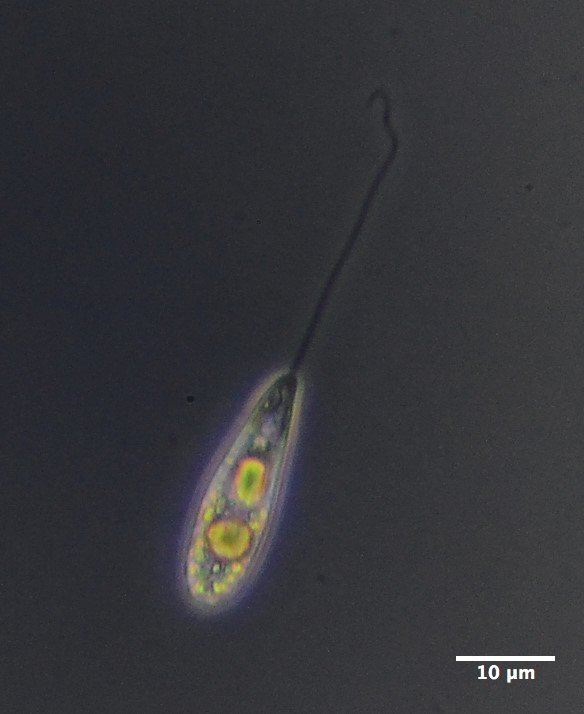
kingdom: Protozoa
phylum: Euglenozoa
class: Euglenoidea
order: Peranemida
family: Peranemidae
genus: Peranema
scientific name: Peranema
